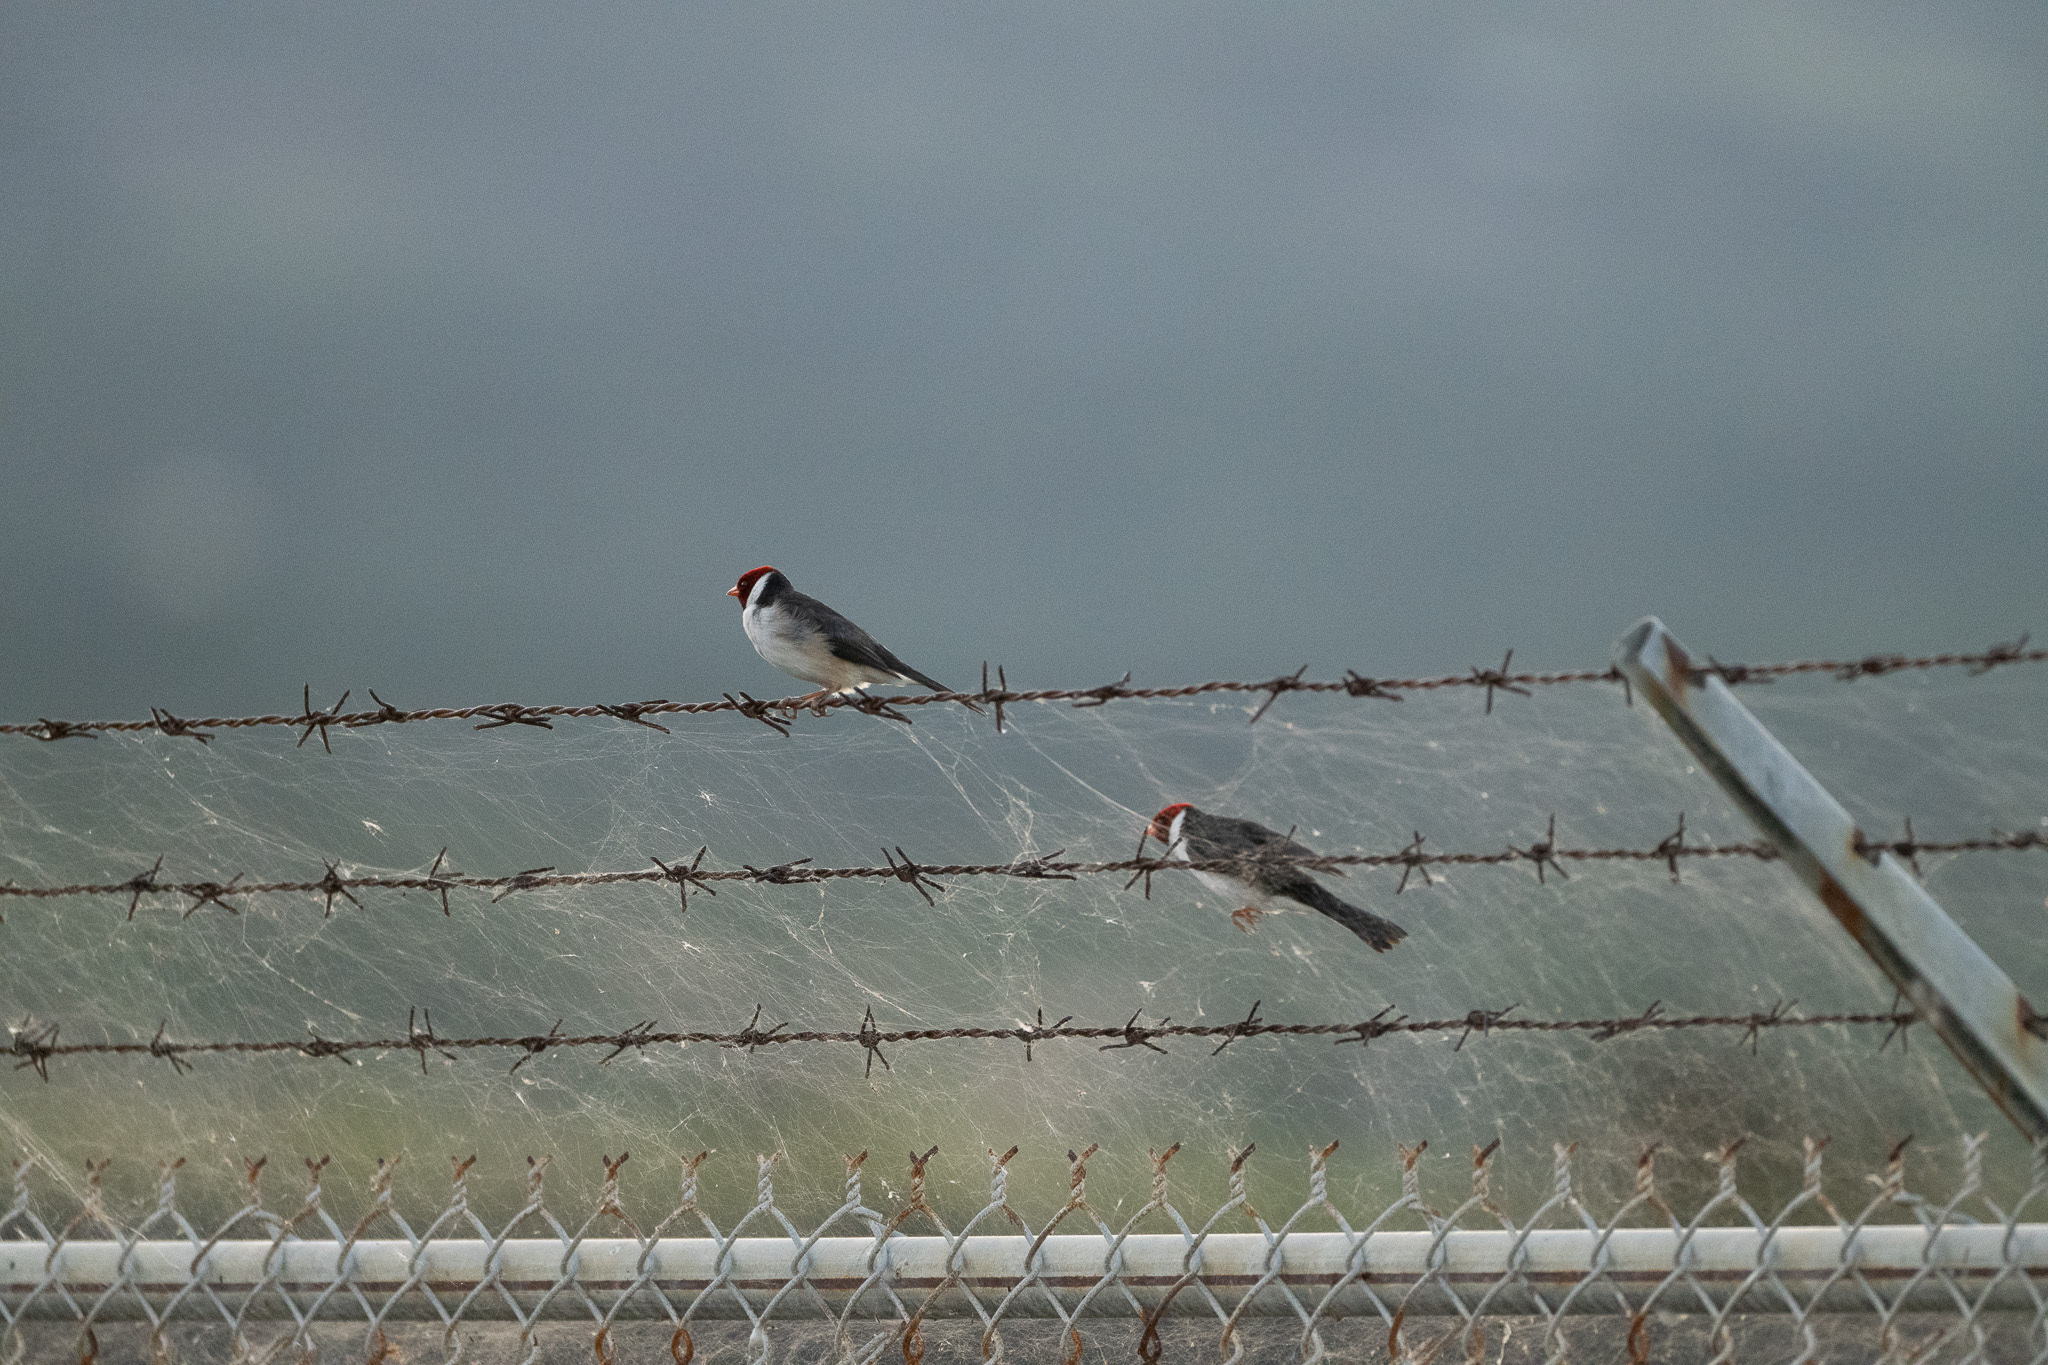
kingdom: Animalia
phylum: Chordata
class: Aves
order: Passeriformes
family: Thraupidae
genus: Paroaria
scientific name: Paroaria capitata
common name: Yellow-billed cardinal
